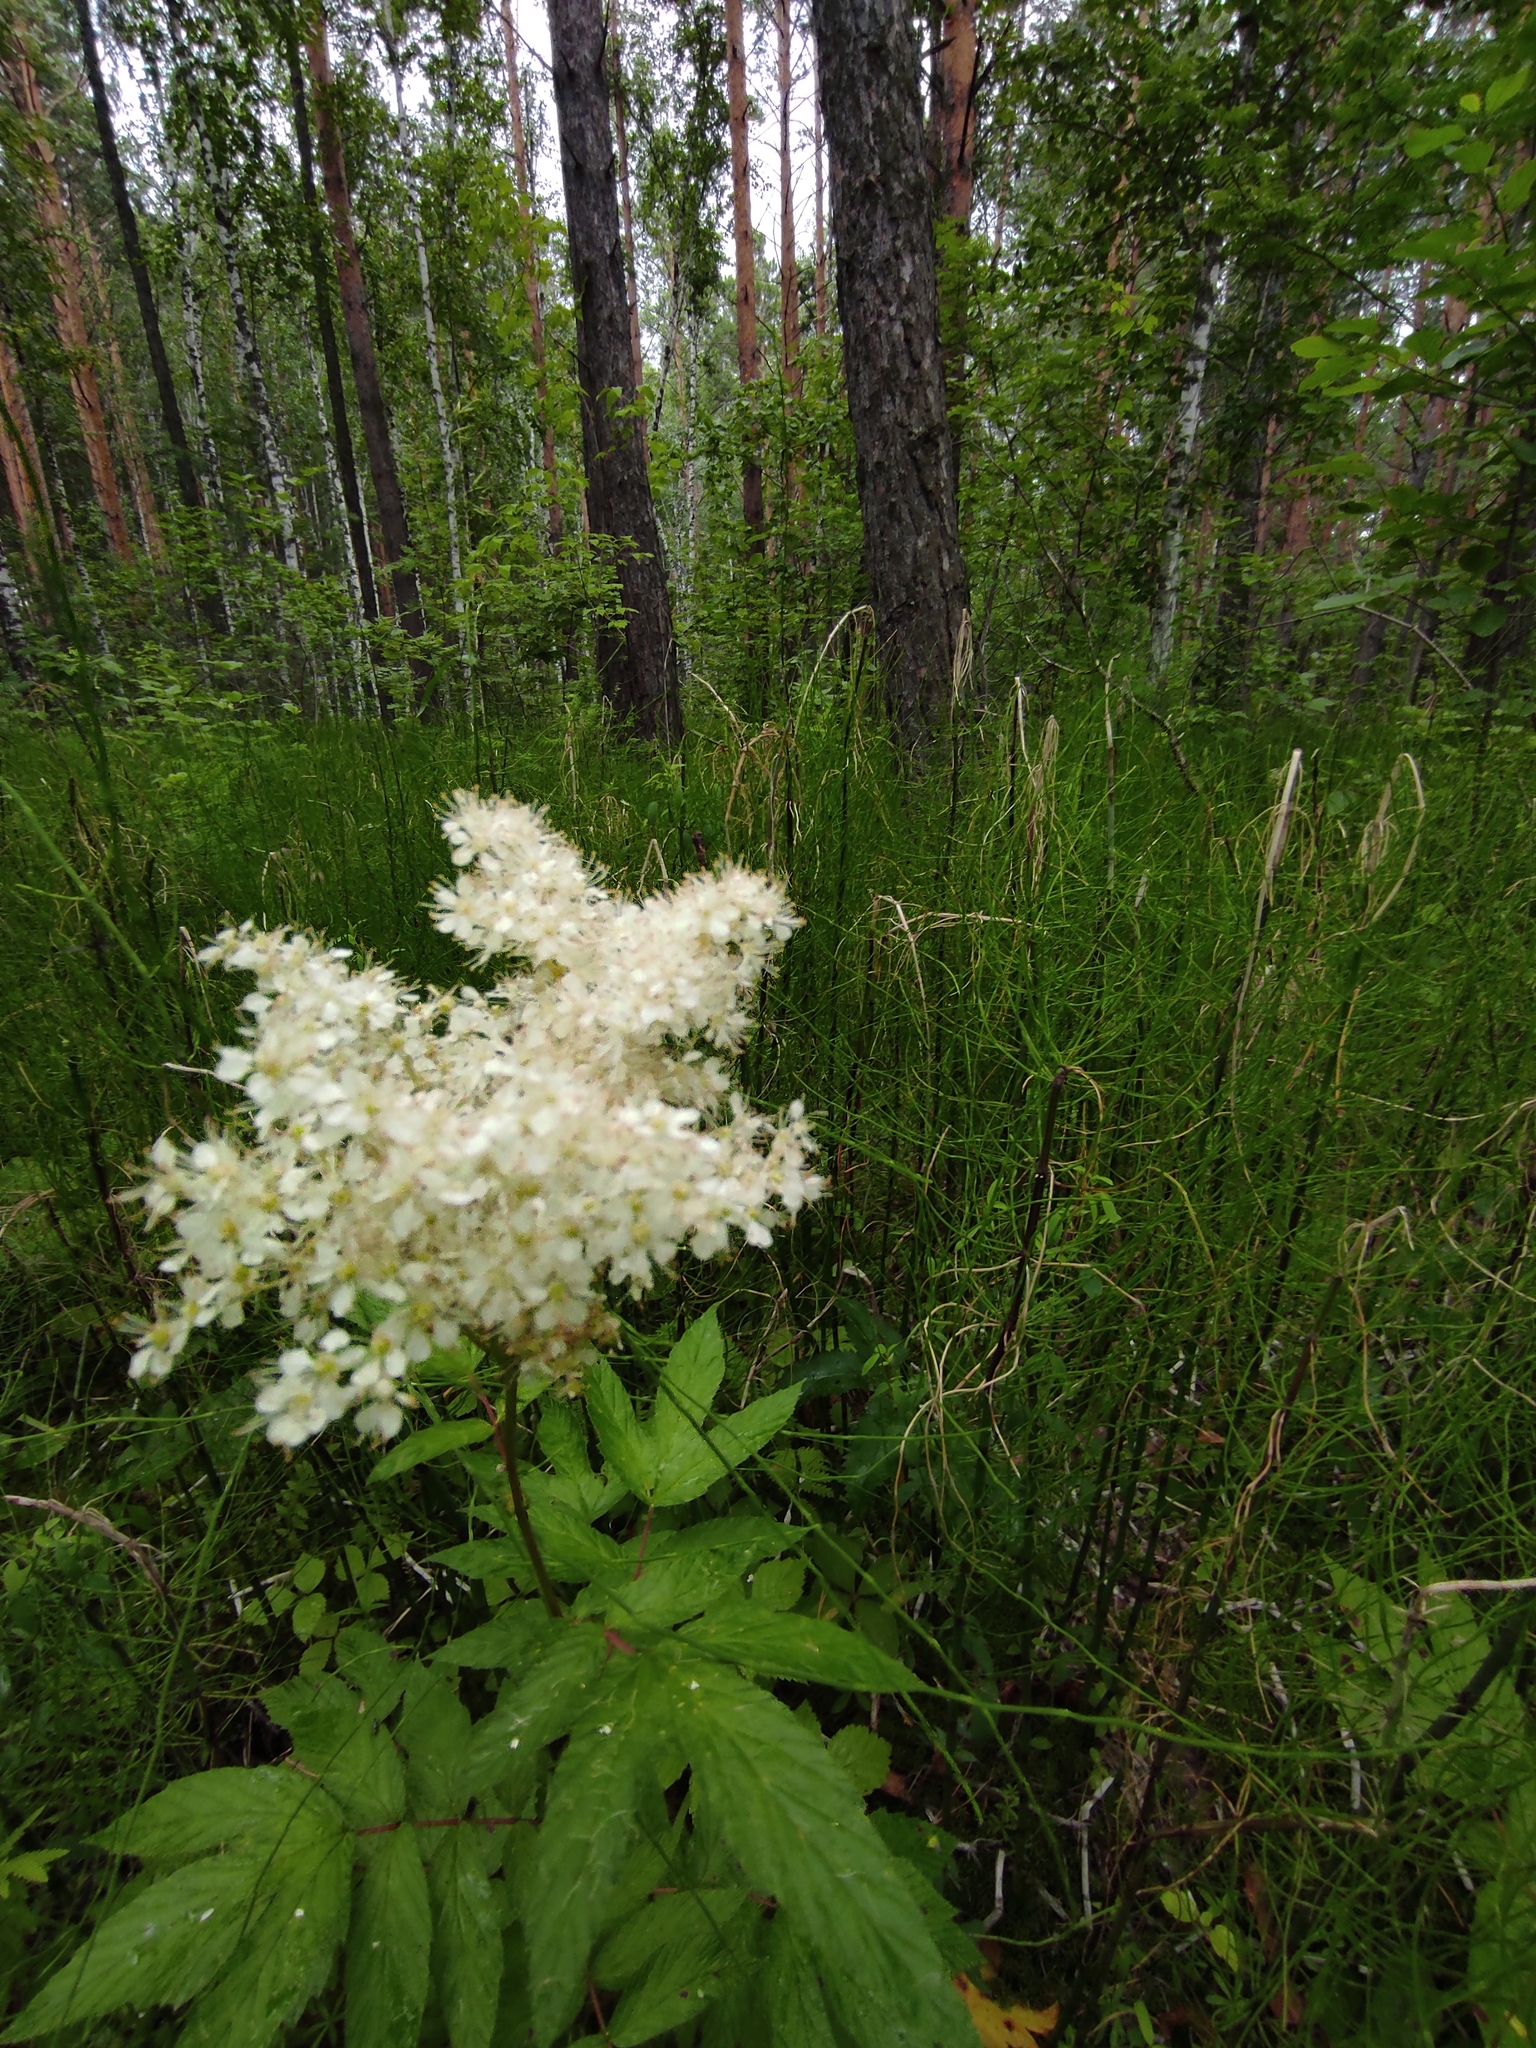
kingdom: Plantae
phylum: Tracheophyta
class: Magnoliopsida
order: Rosales
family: Rosaceae
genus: Filipendula
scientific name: Filipendula ulmaria
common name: Meadowsweet
